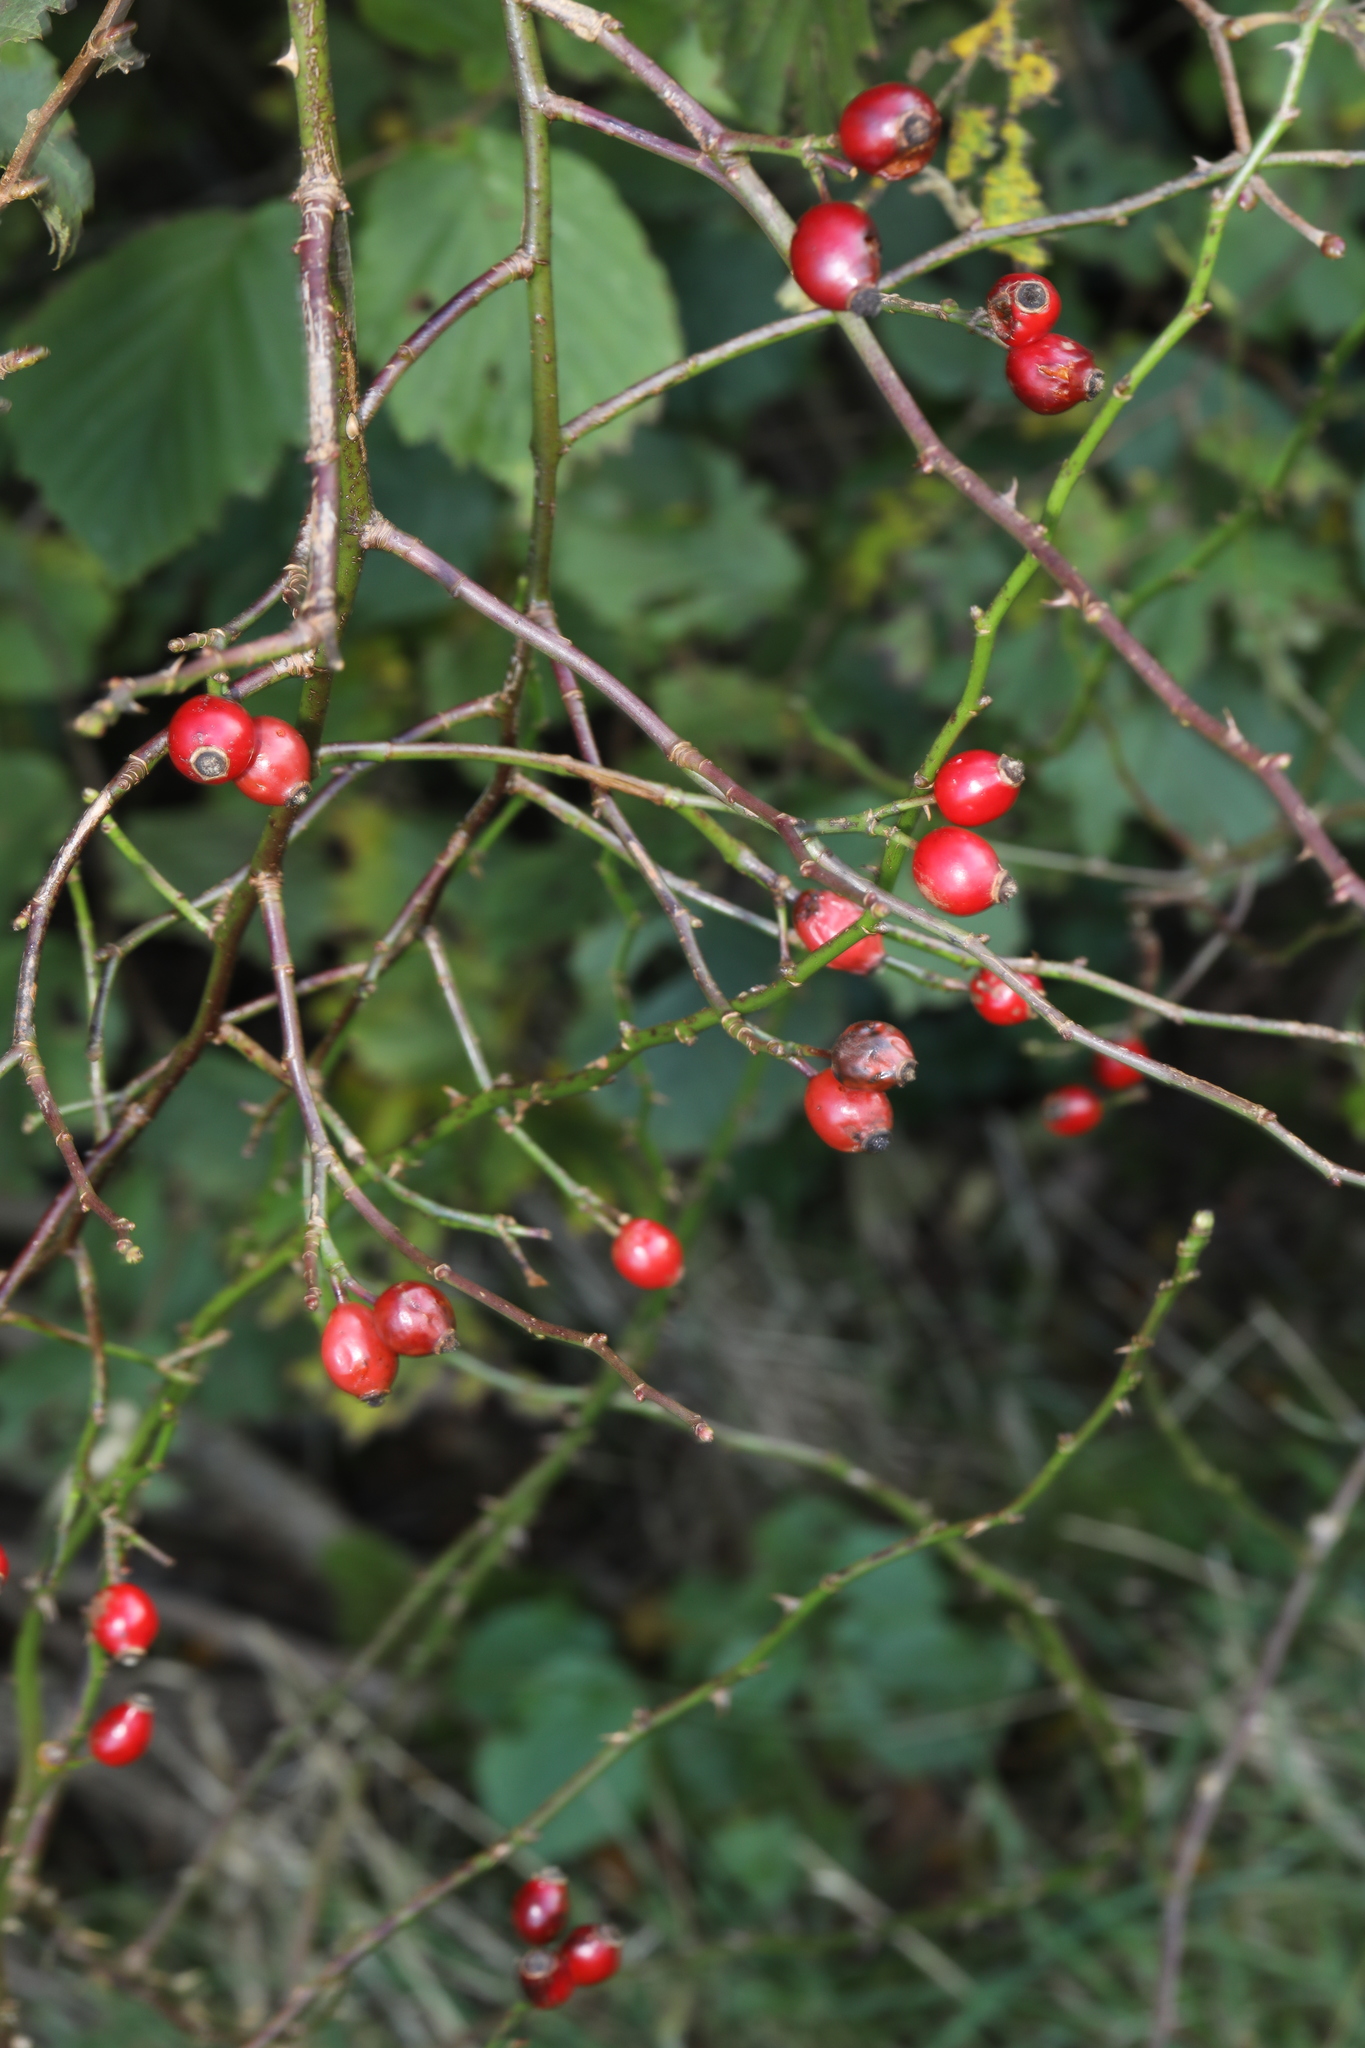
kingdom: Plantae
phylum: Tracheophyta
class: Magnoliopsida
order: Rosales
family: Rosaceae
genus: Rosa
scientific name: Rosa canina
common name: Dog rose
